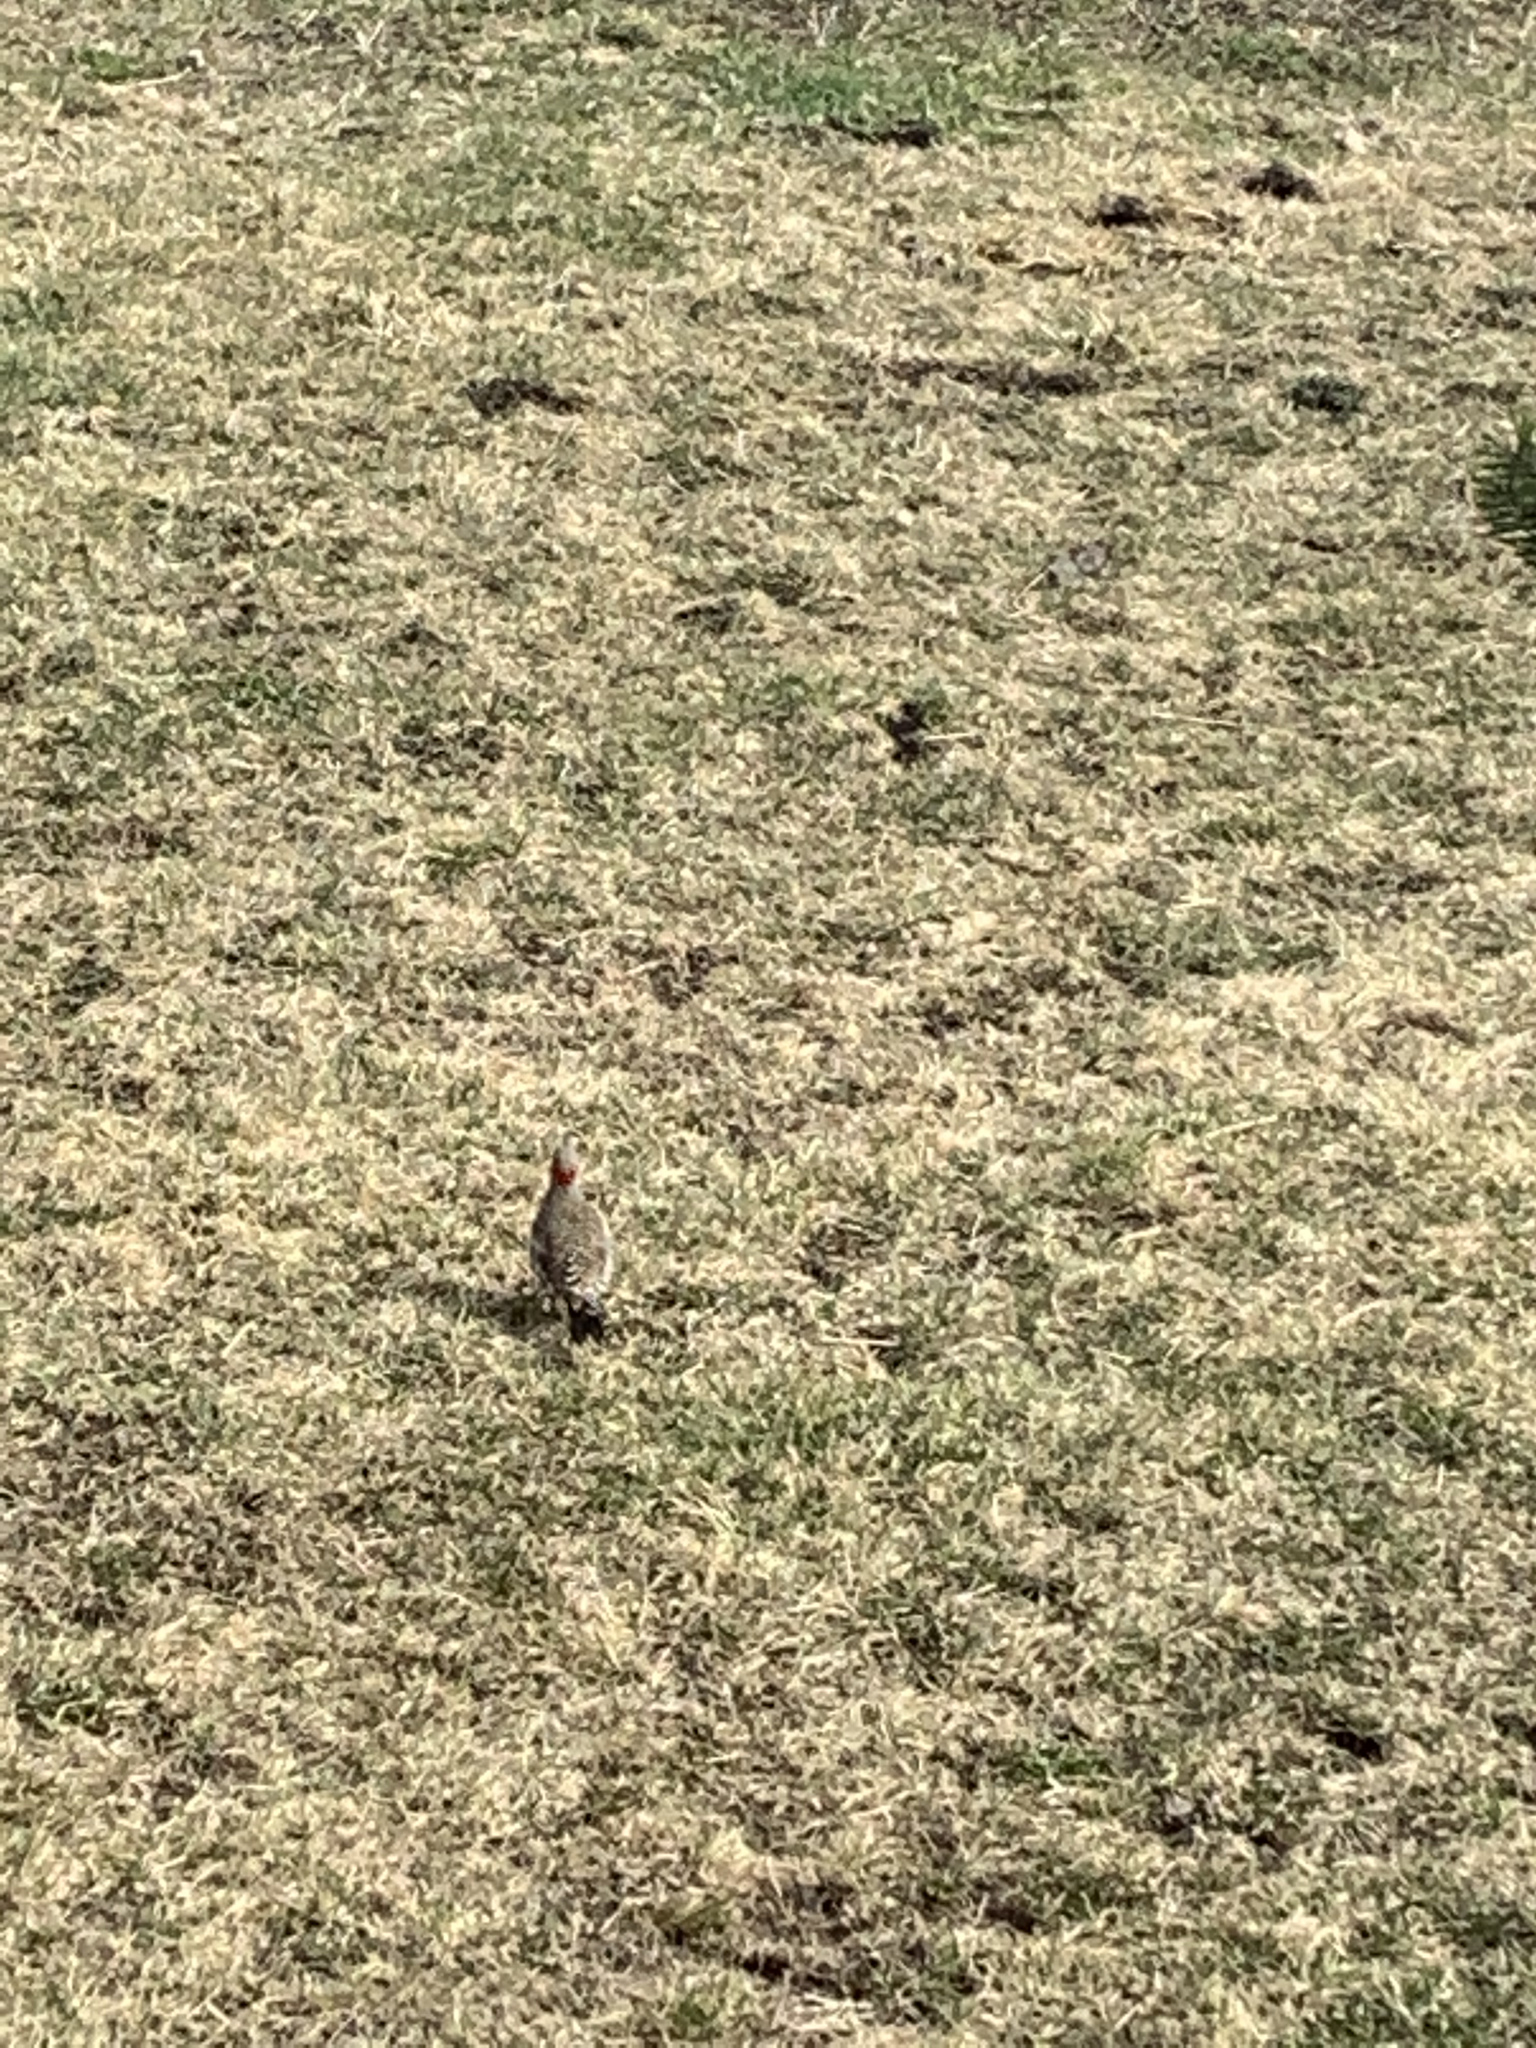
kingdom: Animalia
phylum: Chordata
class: Aves
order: Piciformes
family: Picidae
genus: Colaptes
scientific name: Colaptes auratus
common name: Northern flicker
